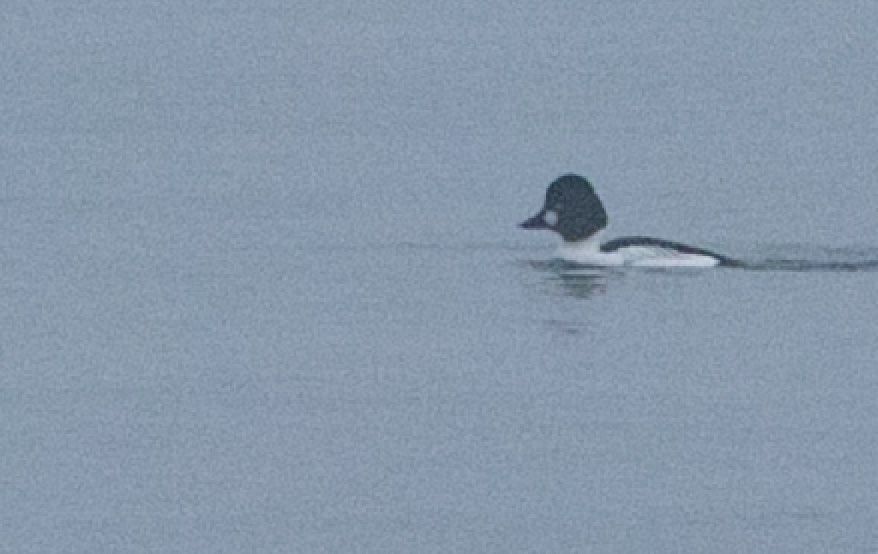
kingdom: Animalia
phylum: Chordata
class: Aves
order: Anseriformes
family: Anatidae
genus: Bucephala
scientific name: Bucephala clangula
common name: Common goldeneye
